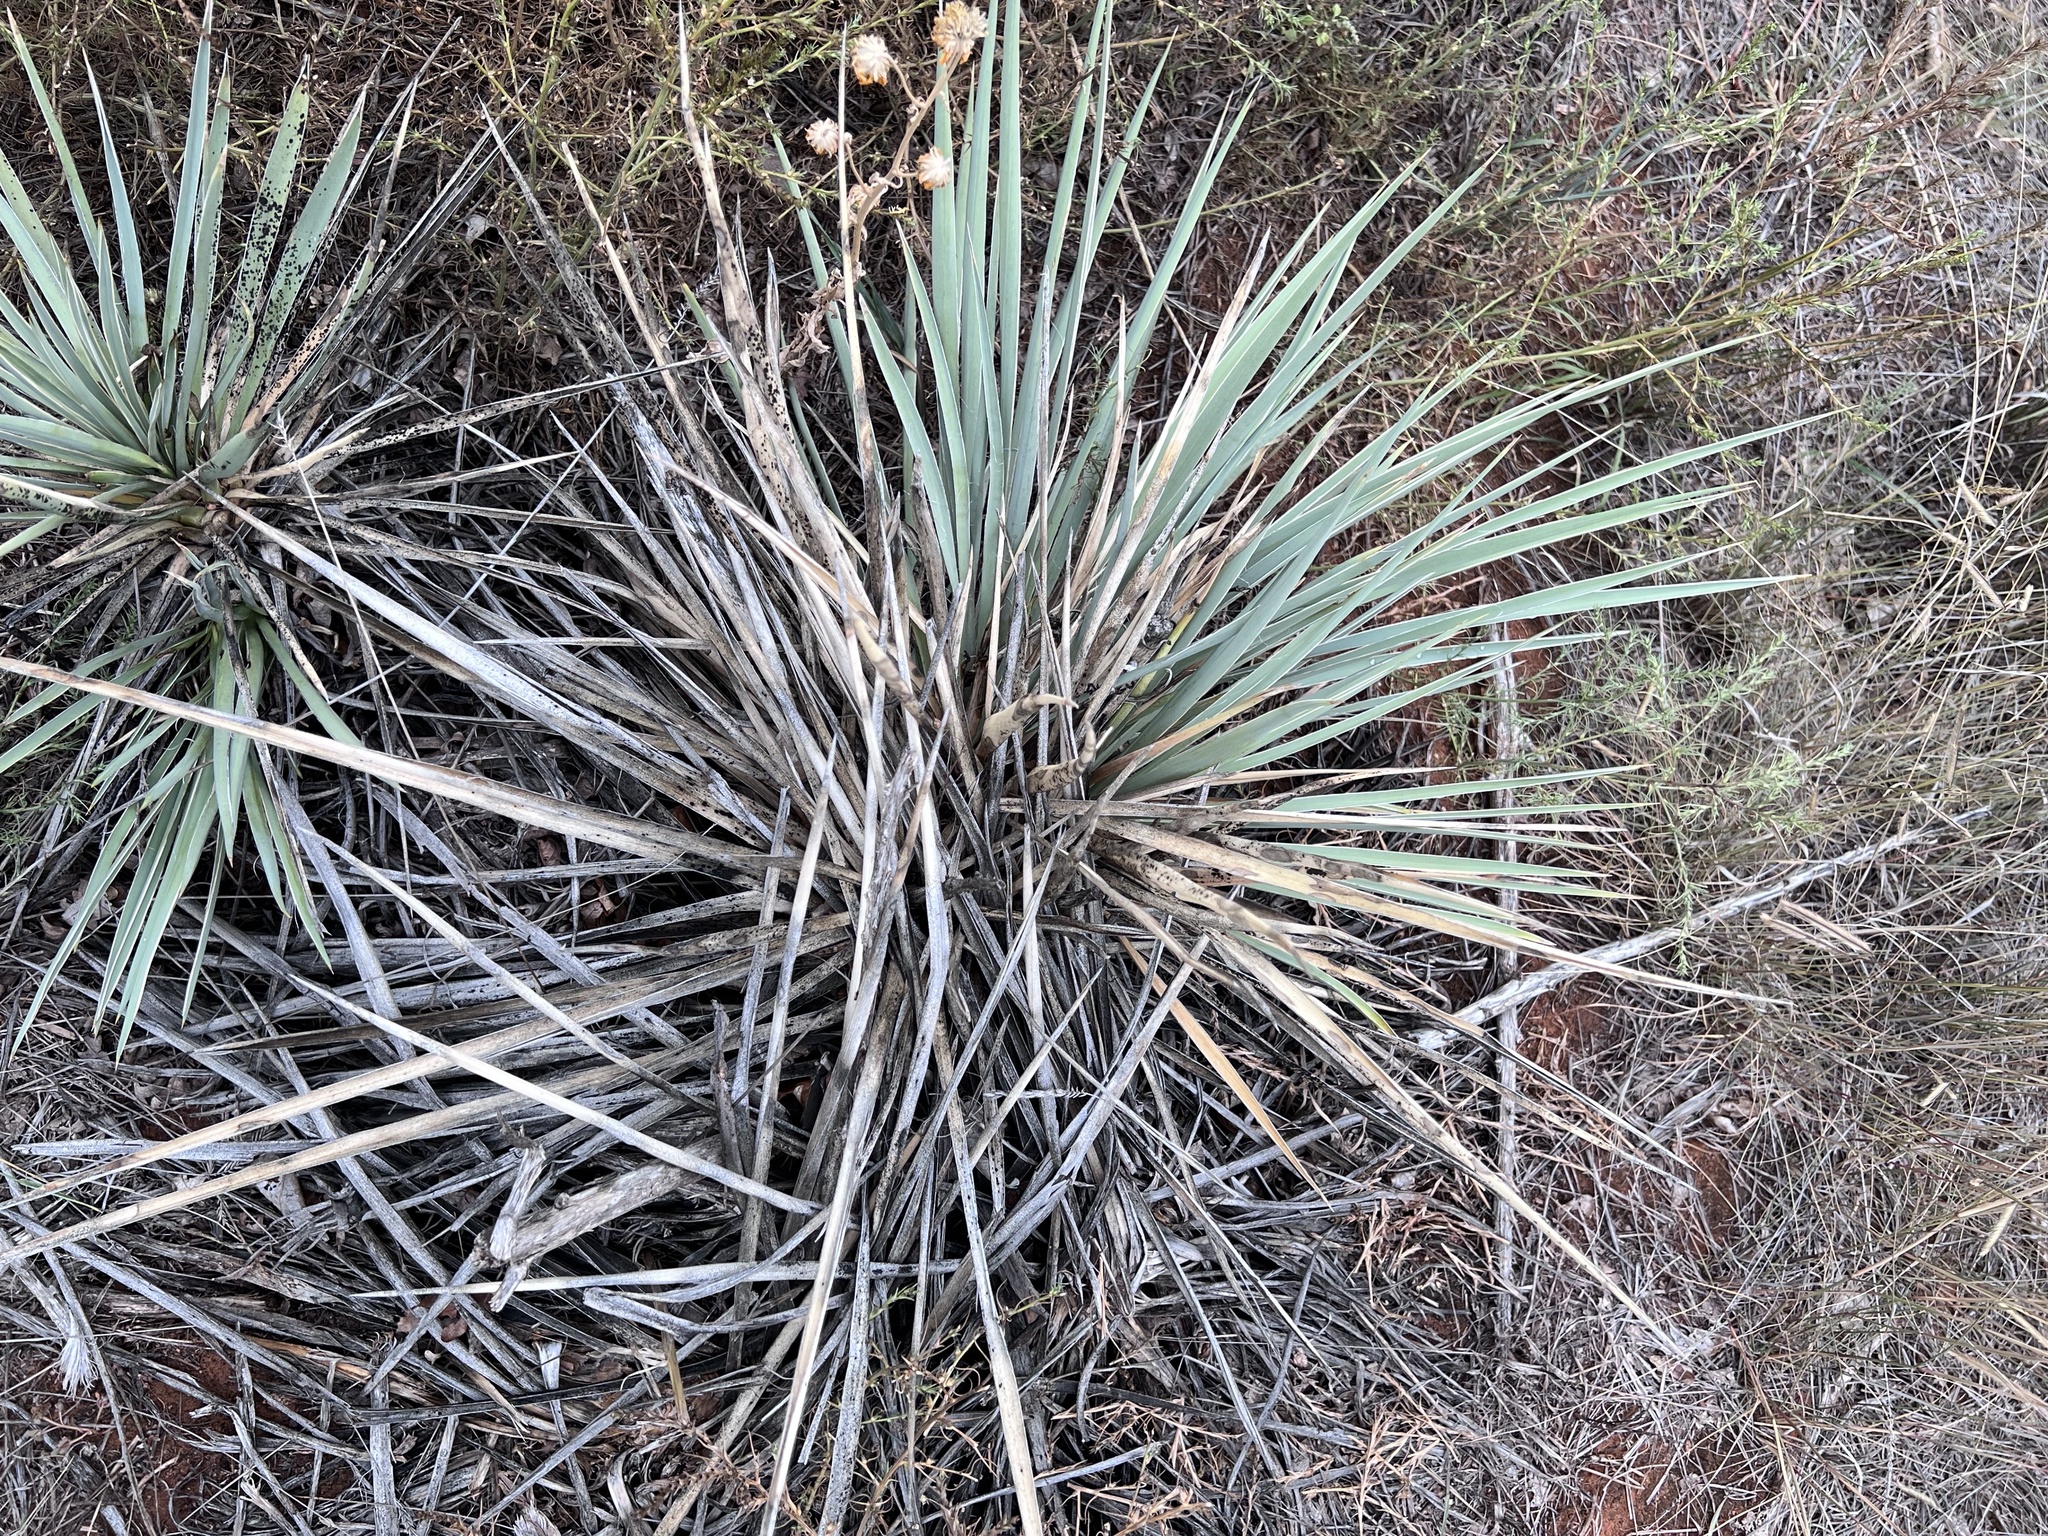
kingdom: Plantae
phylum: Tracheophyta
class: Liliopsida
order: Asparagales
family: Asparagaceae
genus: Yucca
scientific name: Yucca glauca
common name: Great plains yucca
